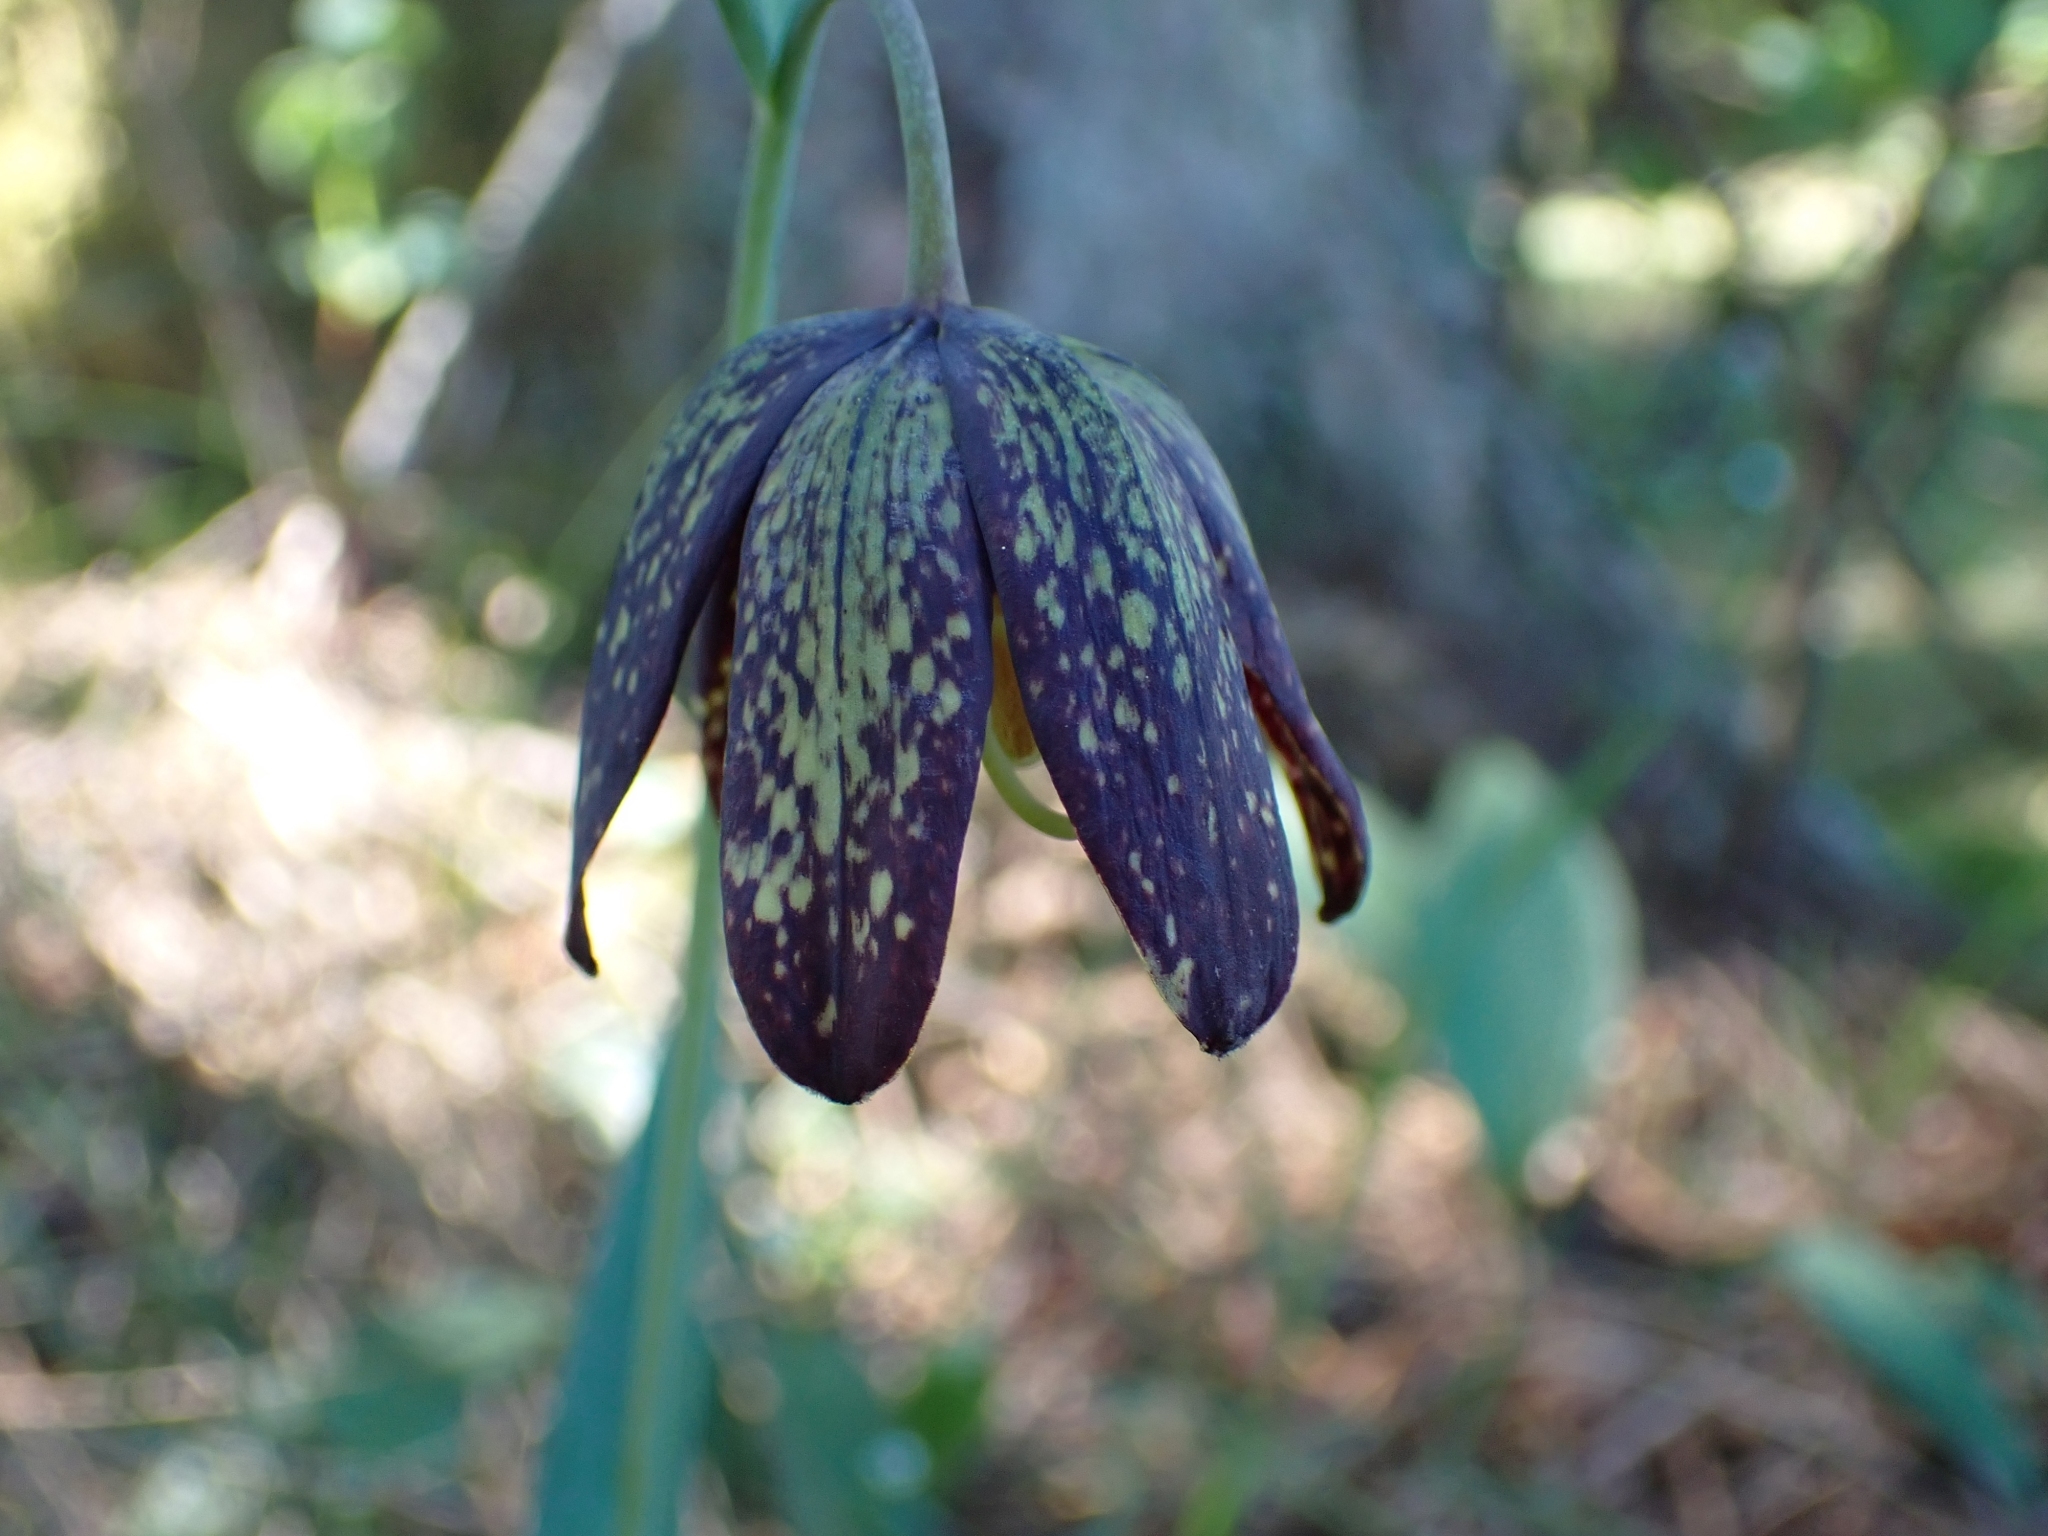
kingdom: Plantae
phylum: Tracheophyta
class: Liliopsida
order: Liliales
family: Liliaceae
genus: Fritillaria
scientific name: Fritillaria affinis
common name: Ojai fritillary
